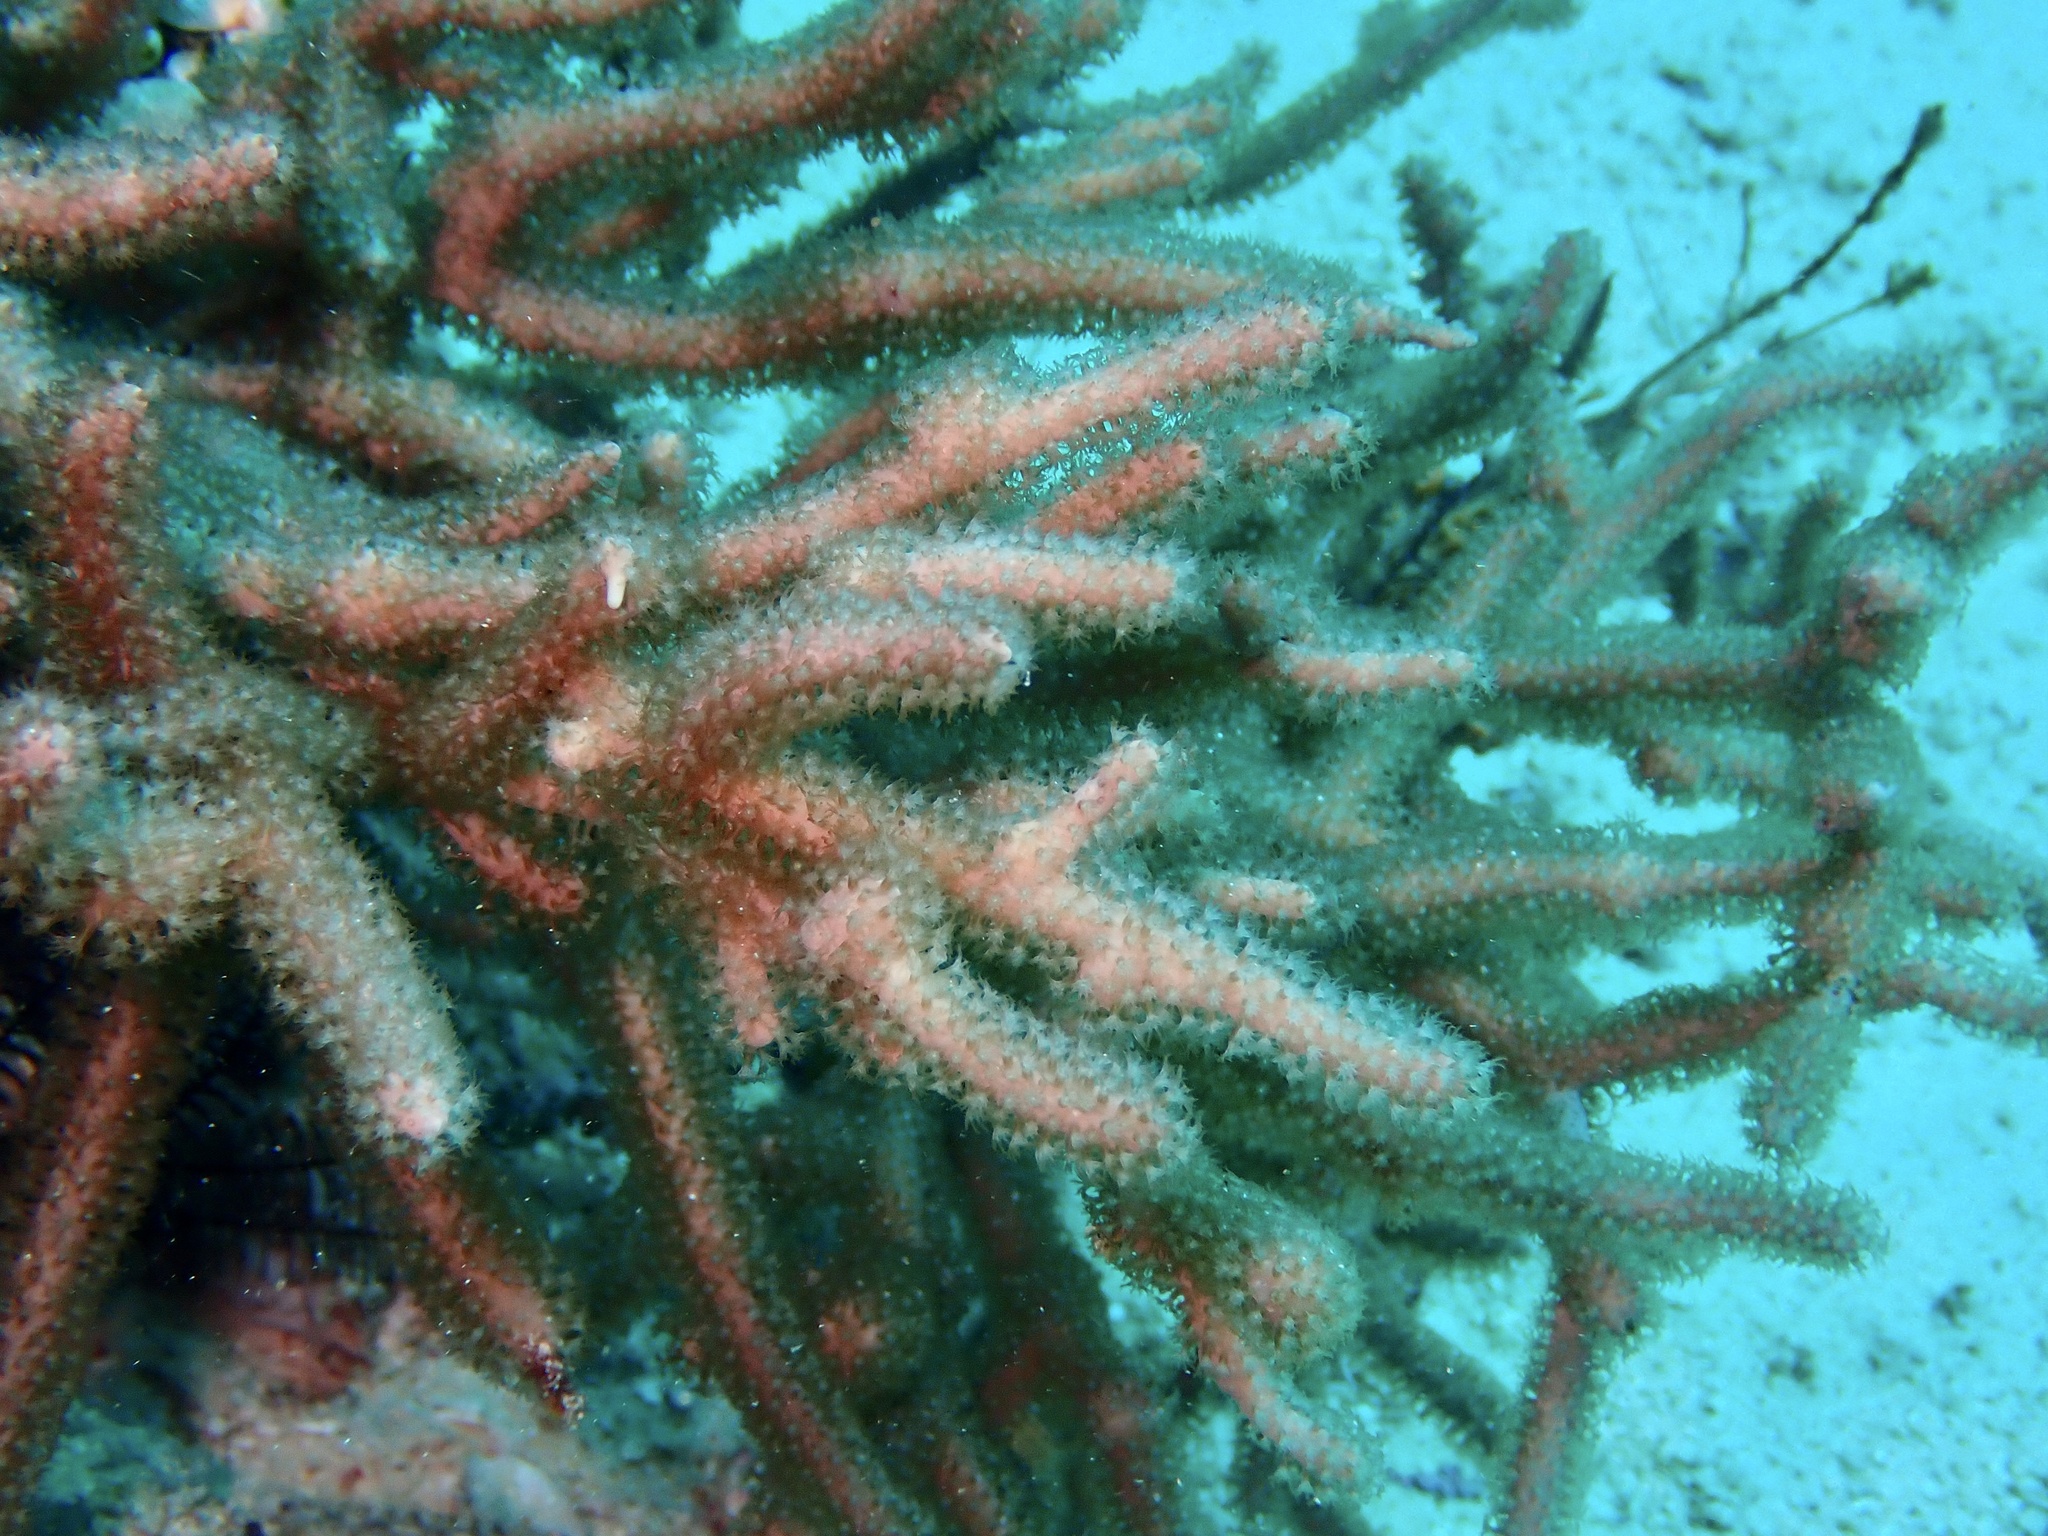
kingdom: Animalia
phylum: Cnidaria
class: Anthozoa
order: Malacalcyonacea
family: Isididae
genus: Hicksonella
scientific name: Hicksonella princeps
